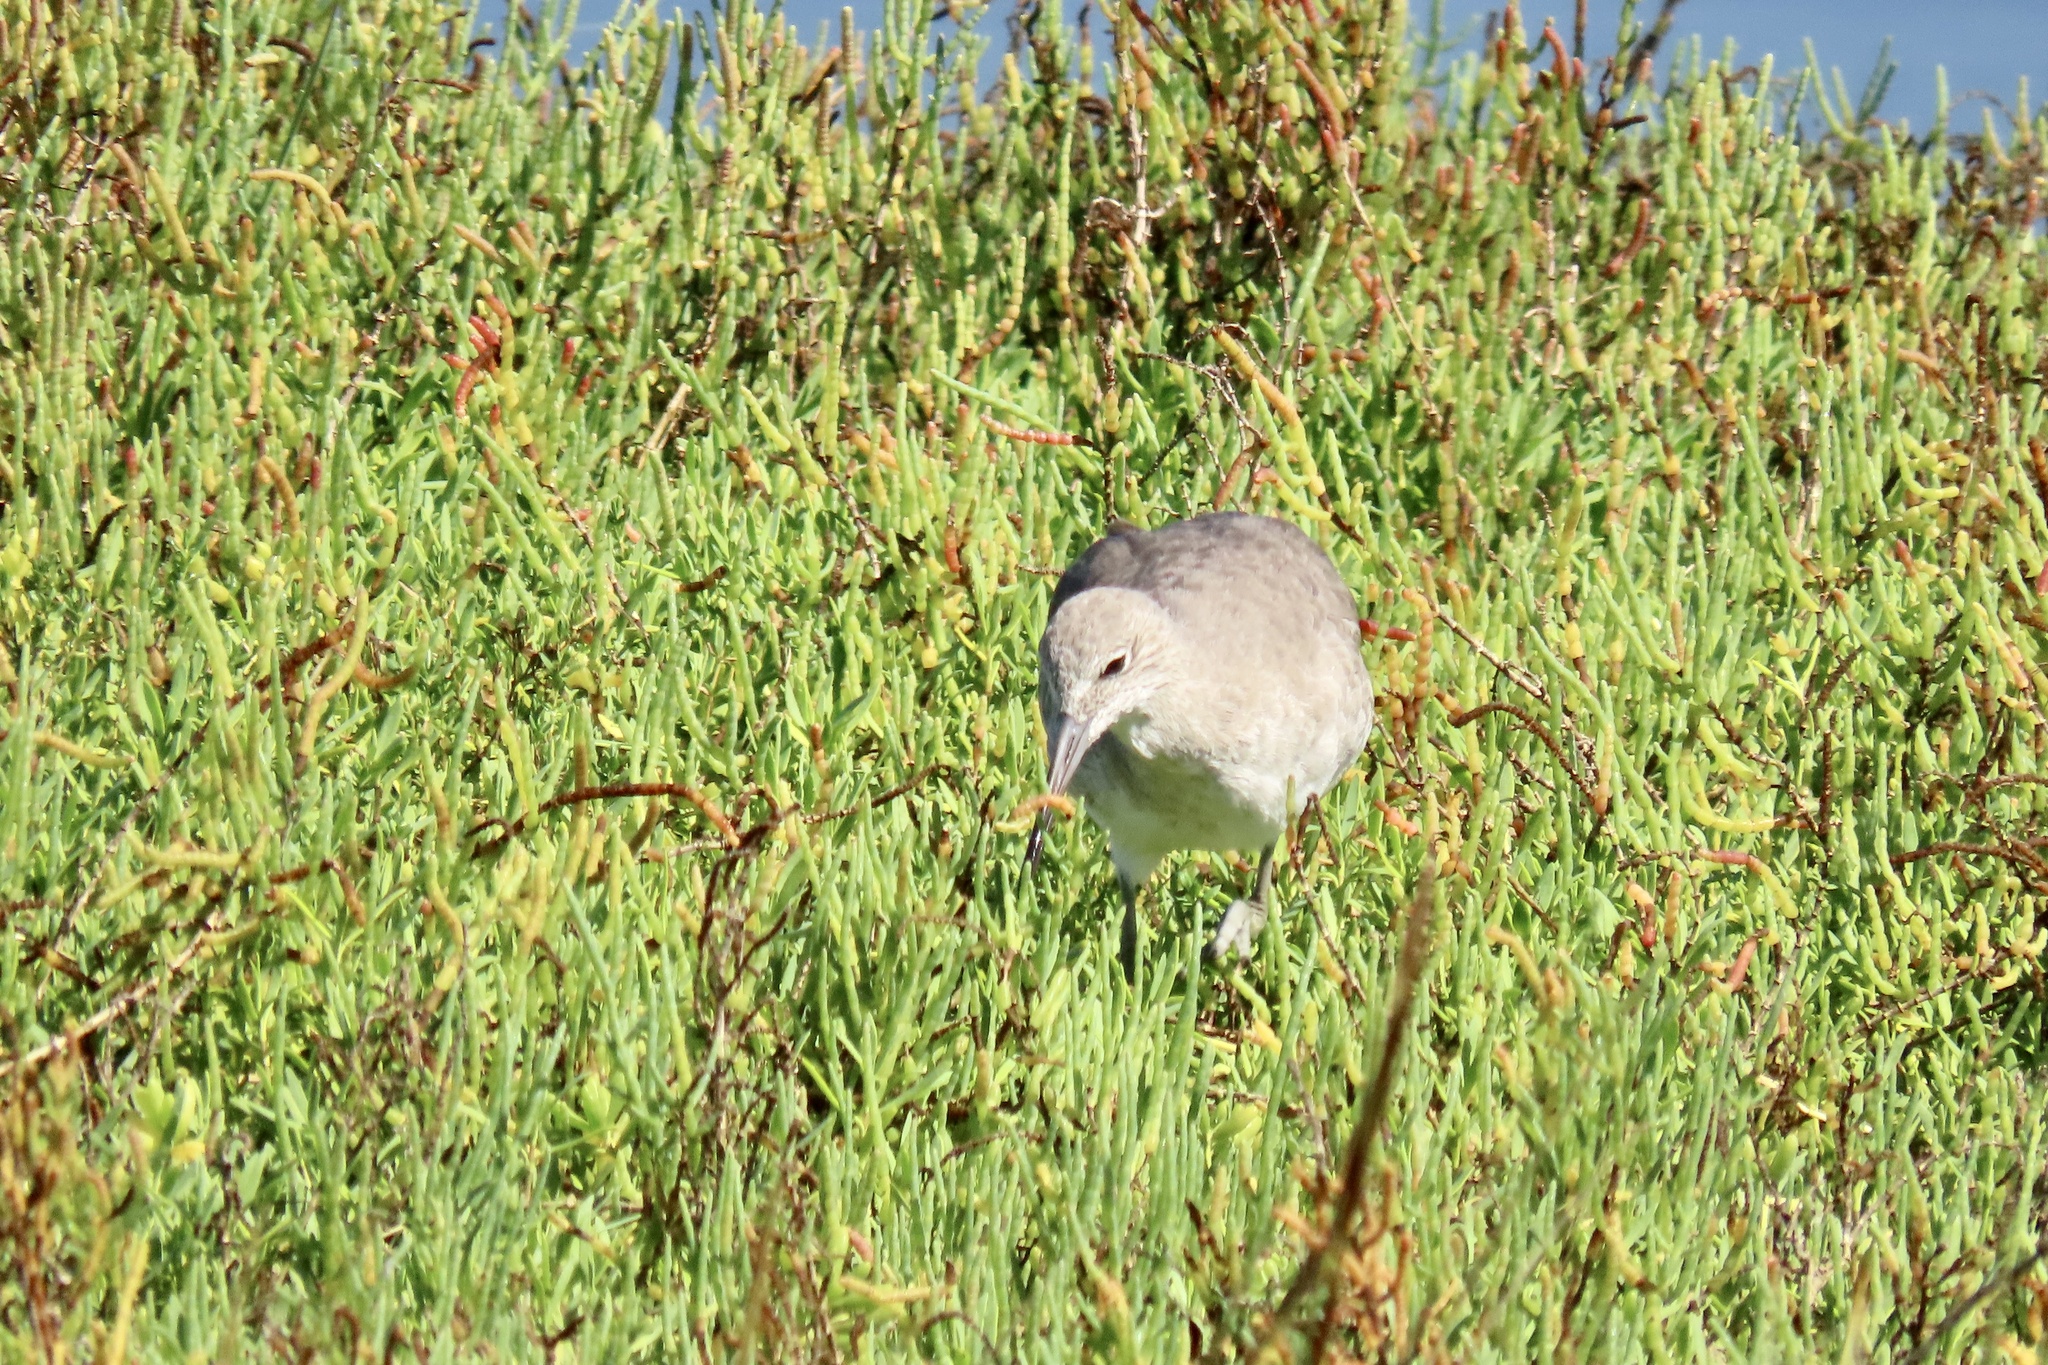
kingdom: Animalia
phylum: Chordata
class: Aves
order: Charadriiformes
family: Scolopacidae
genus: Tringa
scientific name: Tringa semipalmata
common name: Willet
